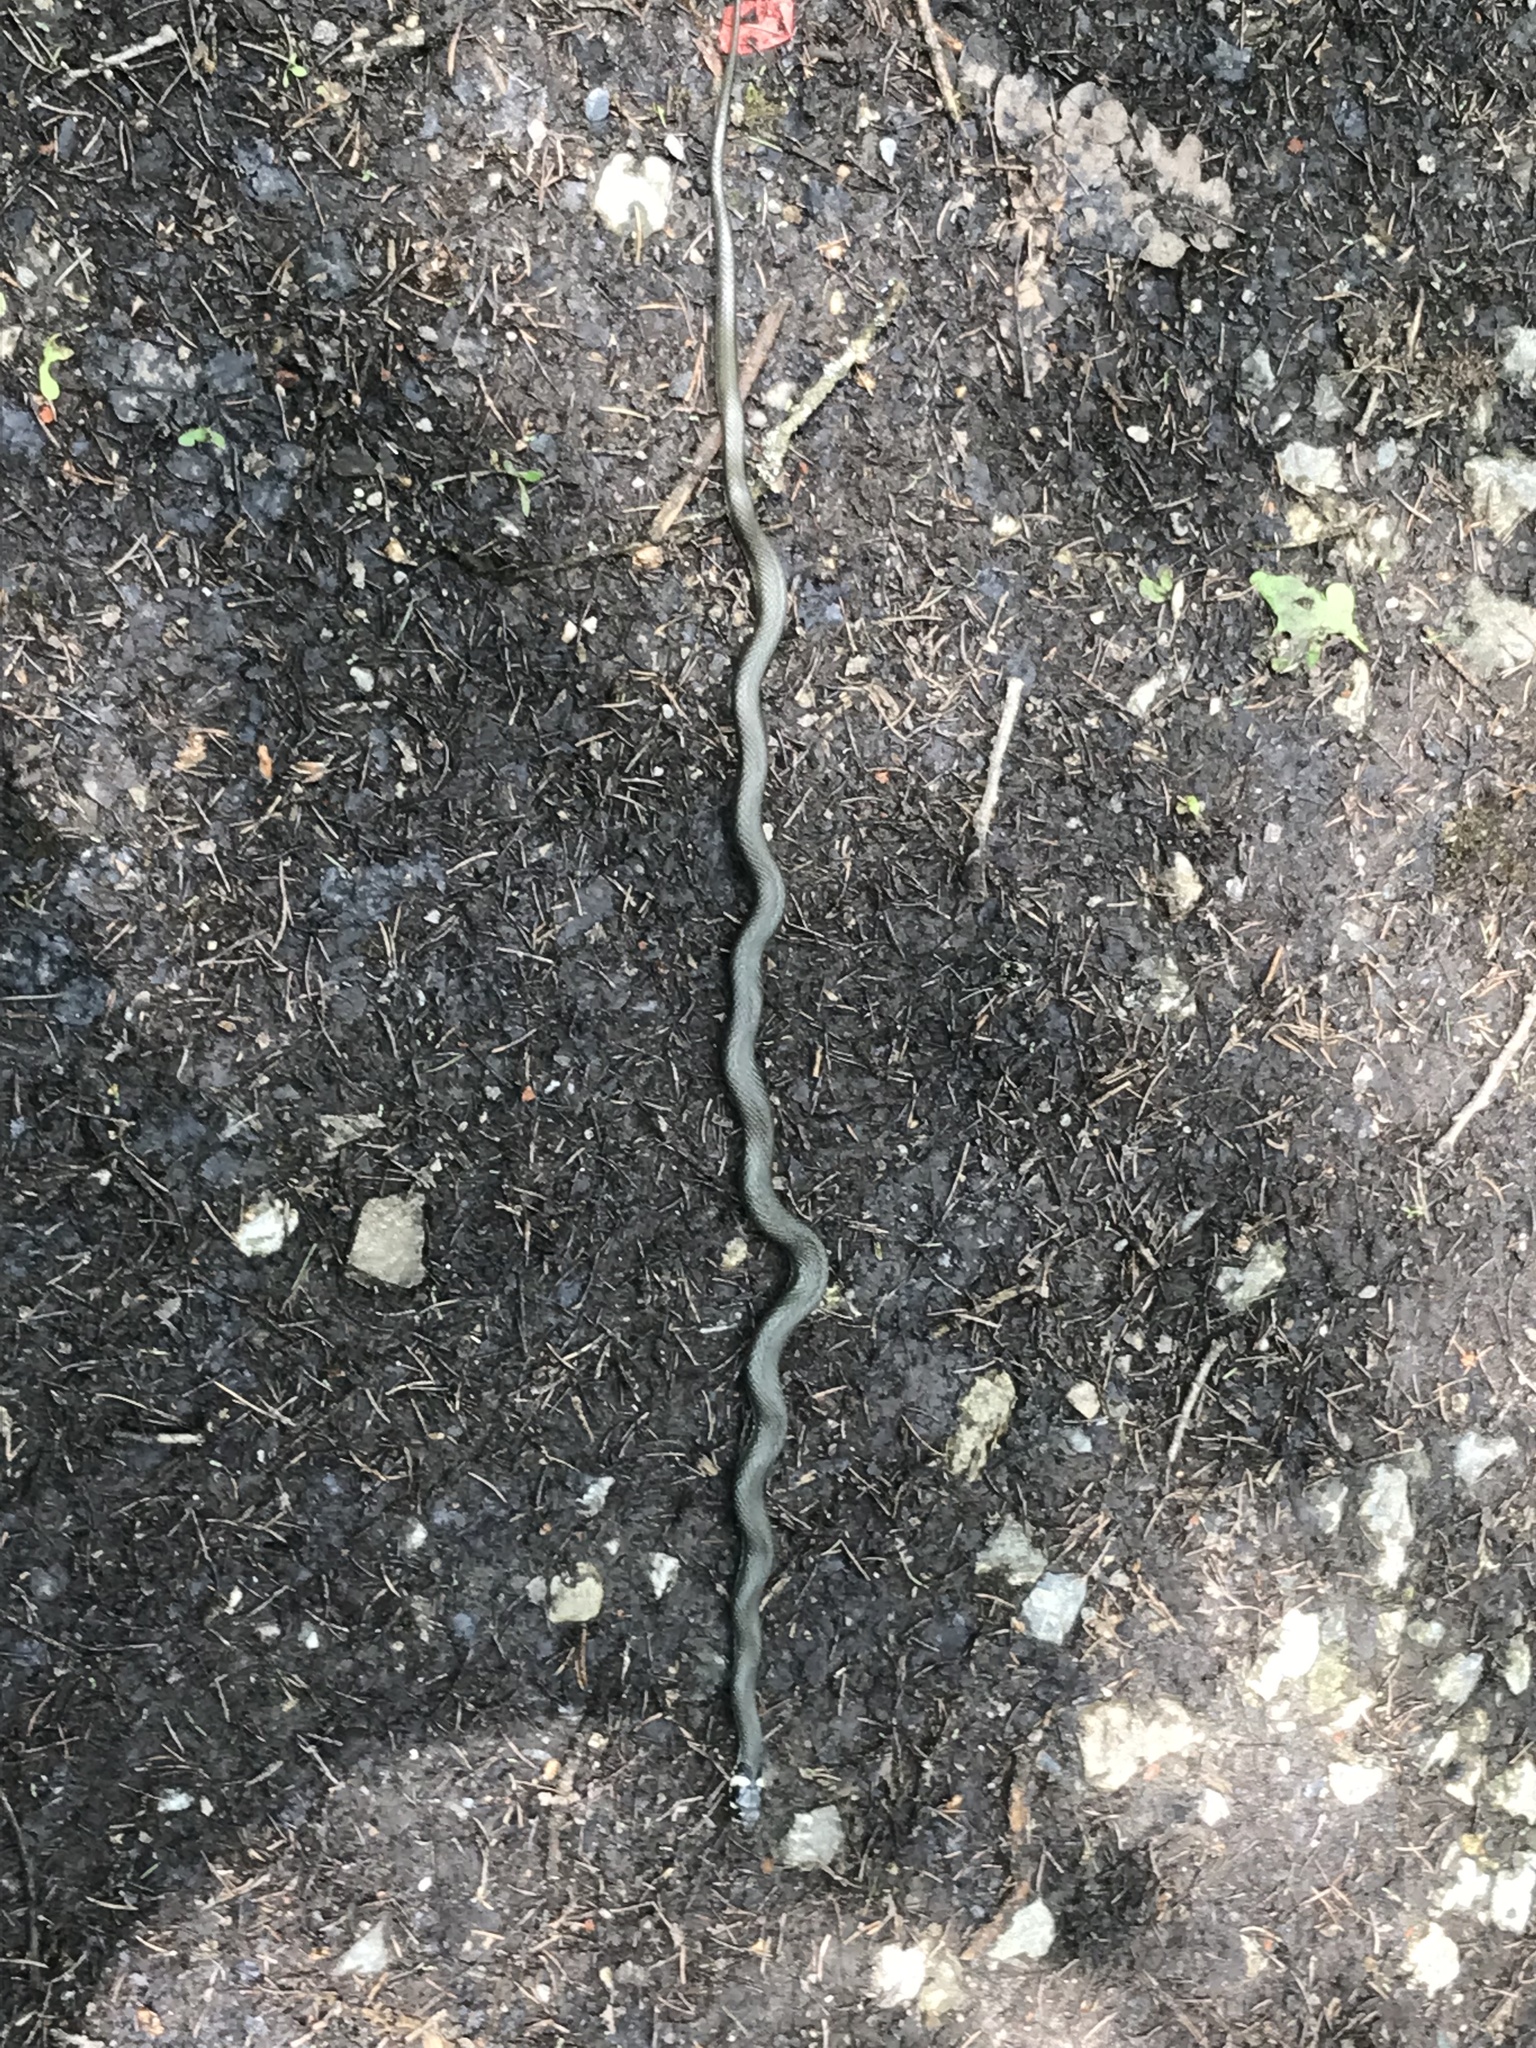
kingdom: Animalia
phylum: Chordata
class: Squamata
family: Colubridae
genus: Natrix
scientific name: Natrix natrix
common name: Grass snake
